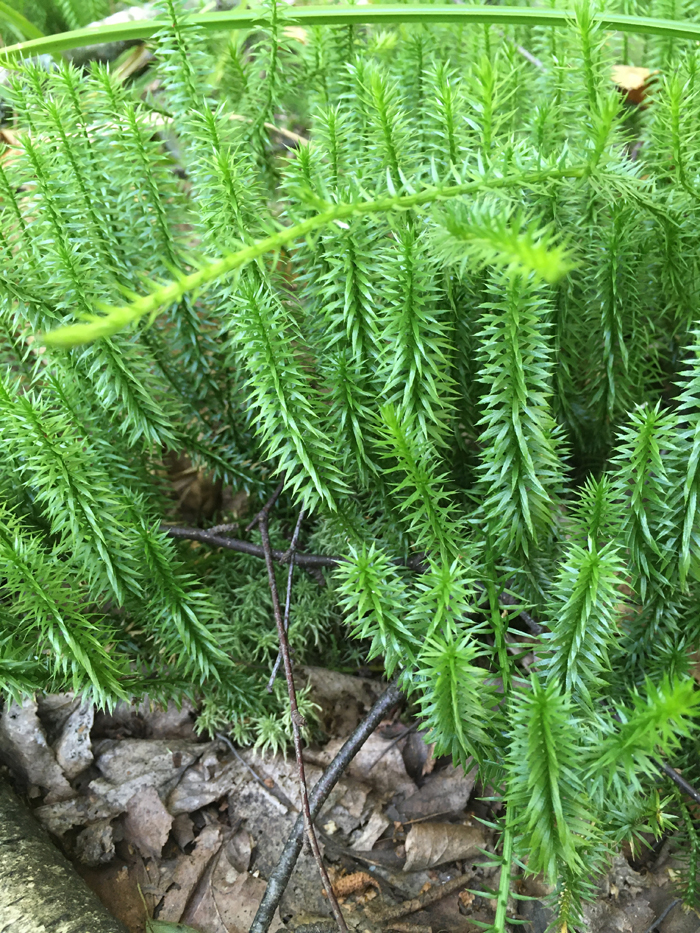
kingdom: Plantae
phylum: Tracheophyta
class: Lycopodiopsida
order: Lycopodiales
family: Lycopodiaceae
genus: Spinulum
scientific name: Spinulum annotinum
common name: Interrupted club-moss
